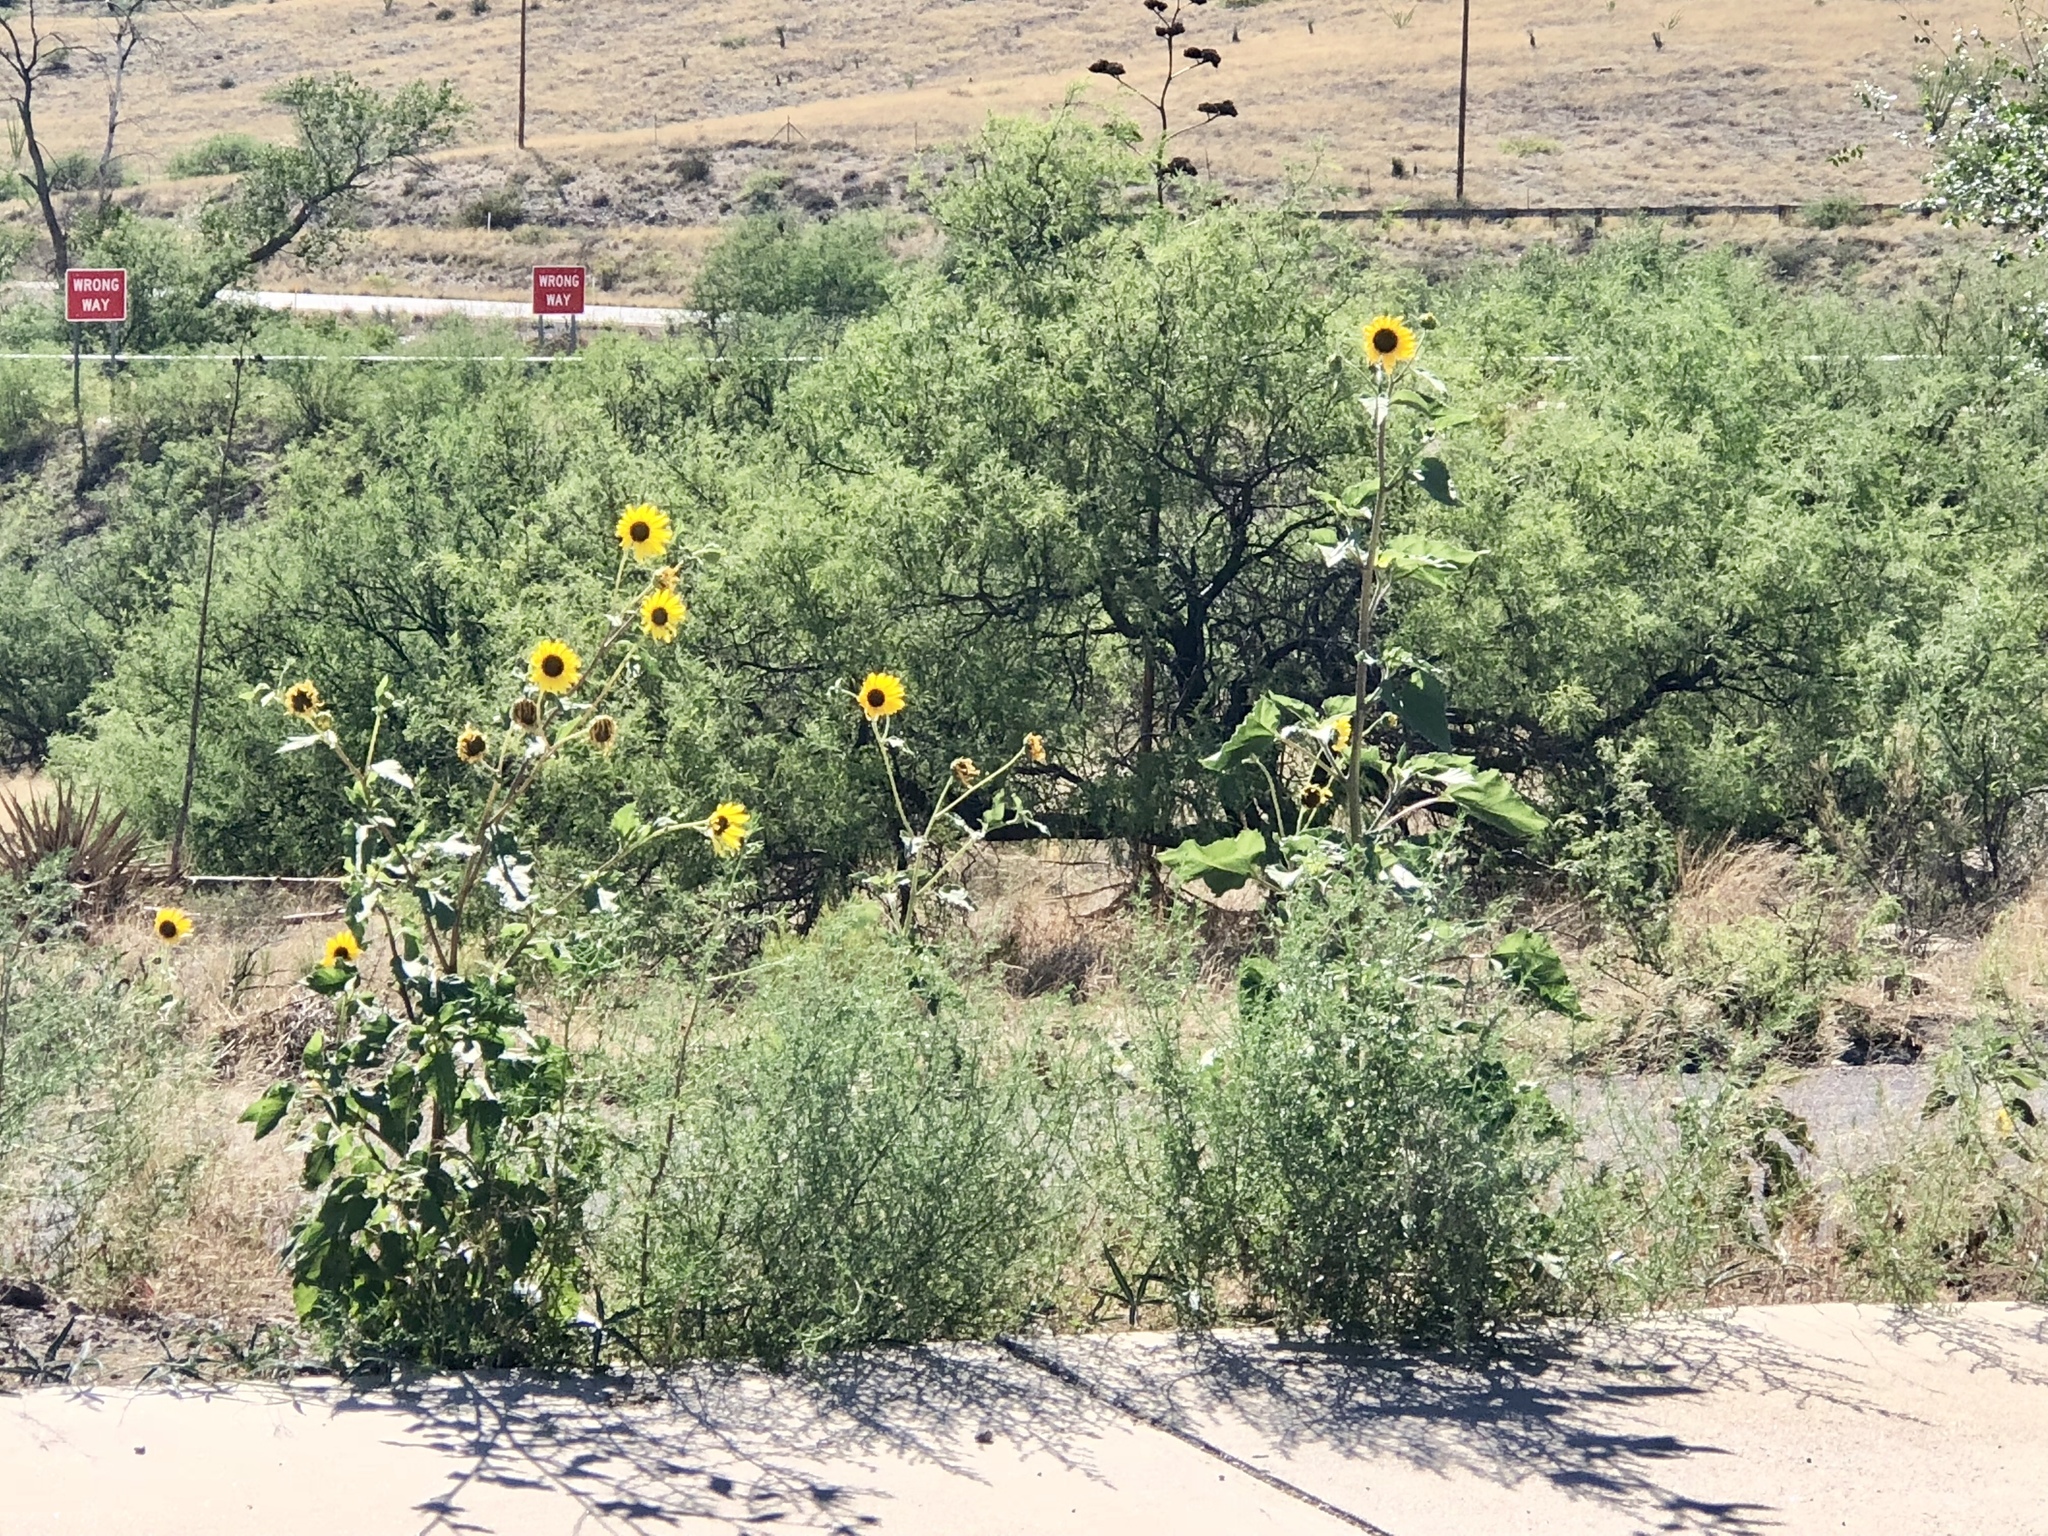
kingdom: Plantae
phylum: Tracheophyta
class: Magnoliopsida
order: Asterales
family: Asteraceae
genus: Helianthus
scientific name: Helianthus annuus
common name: Sunflower
